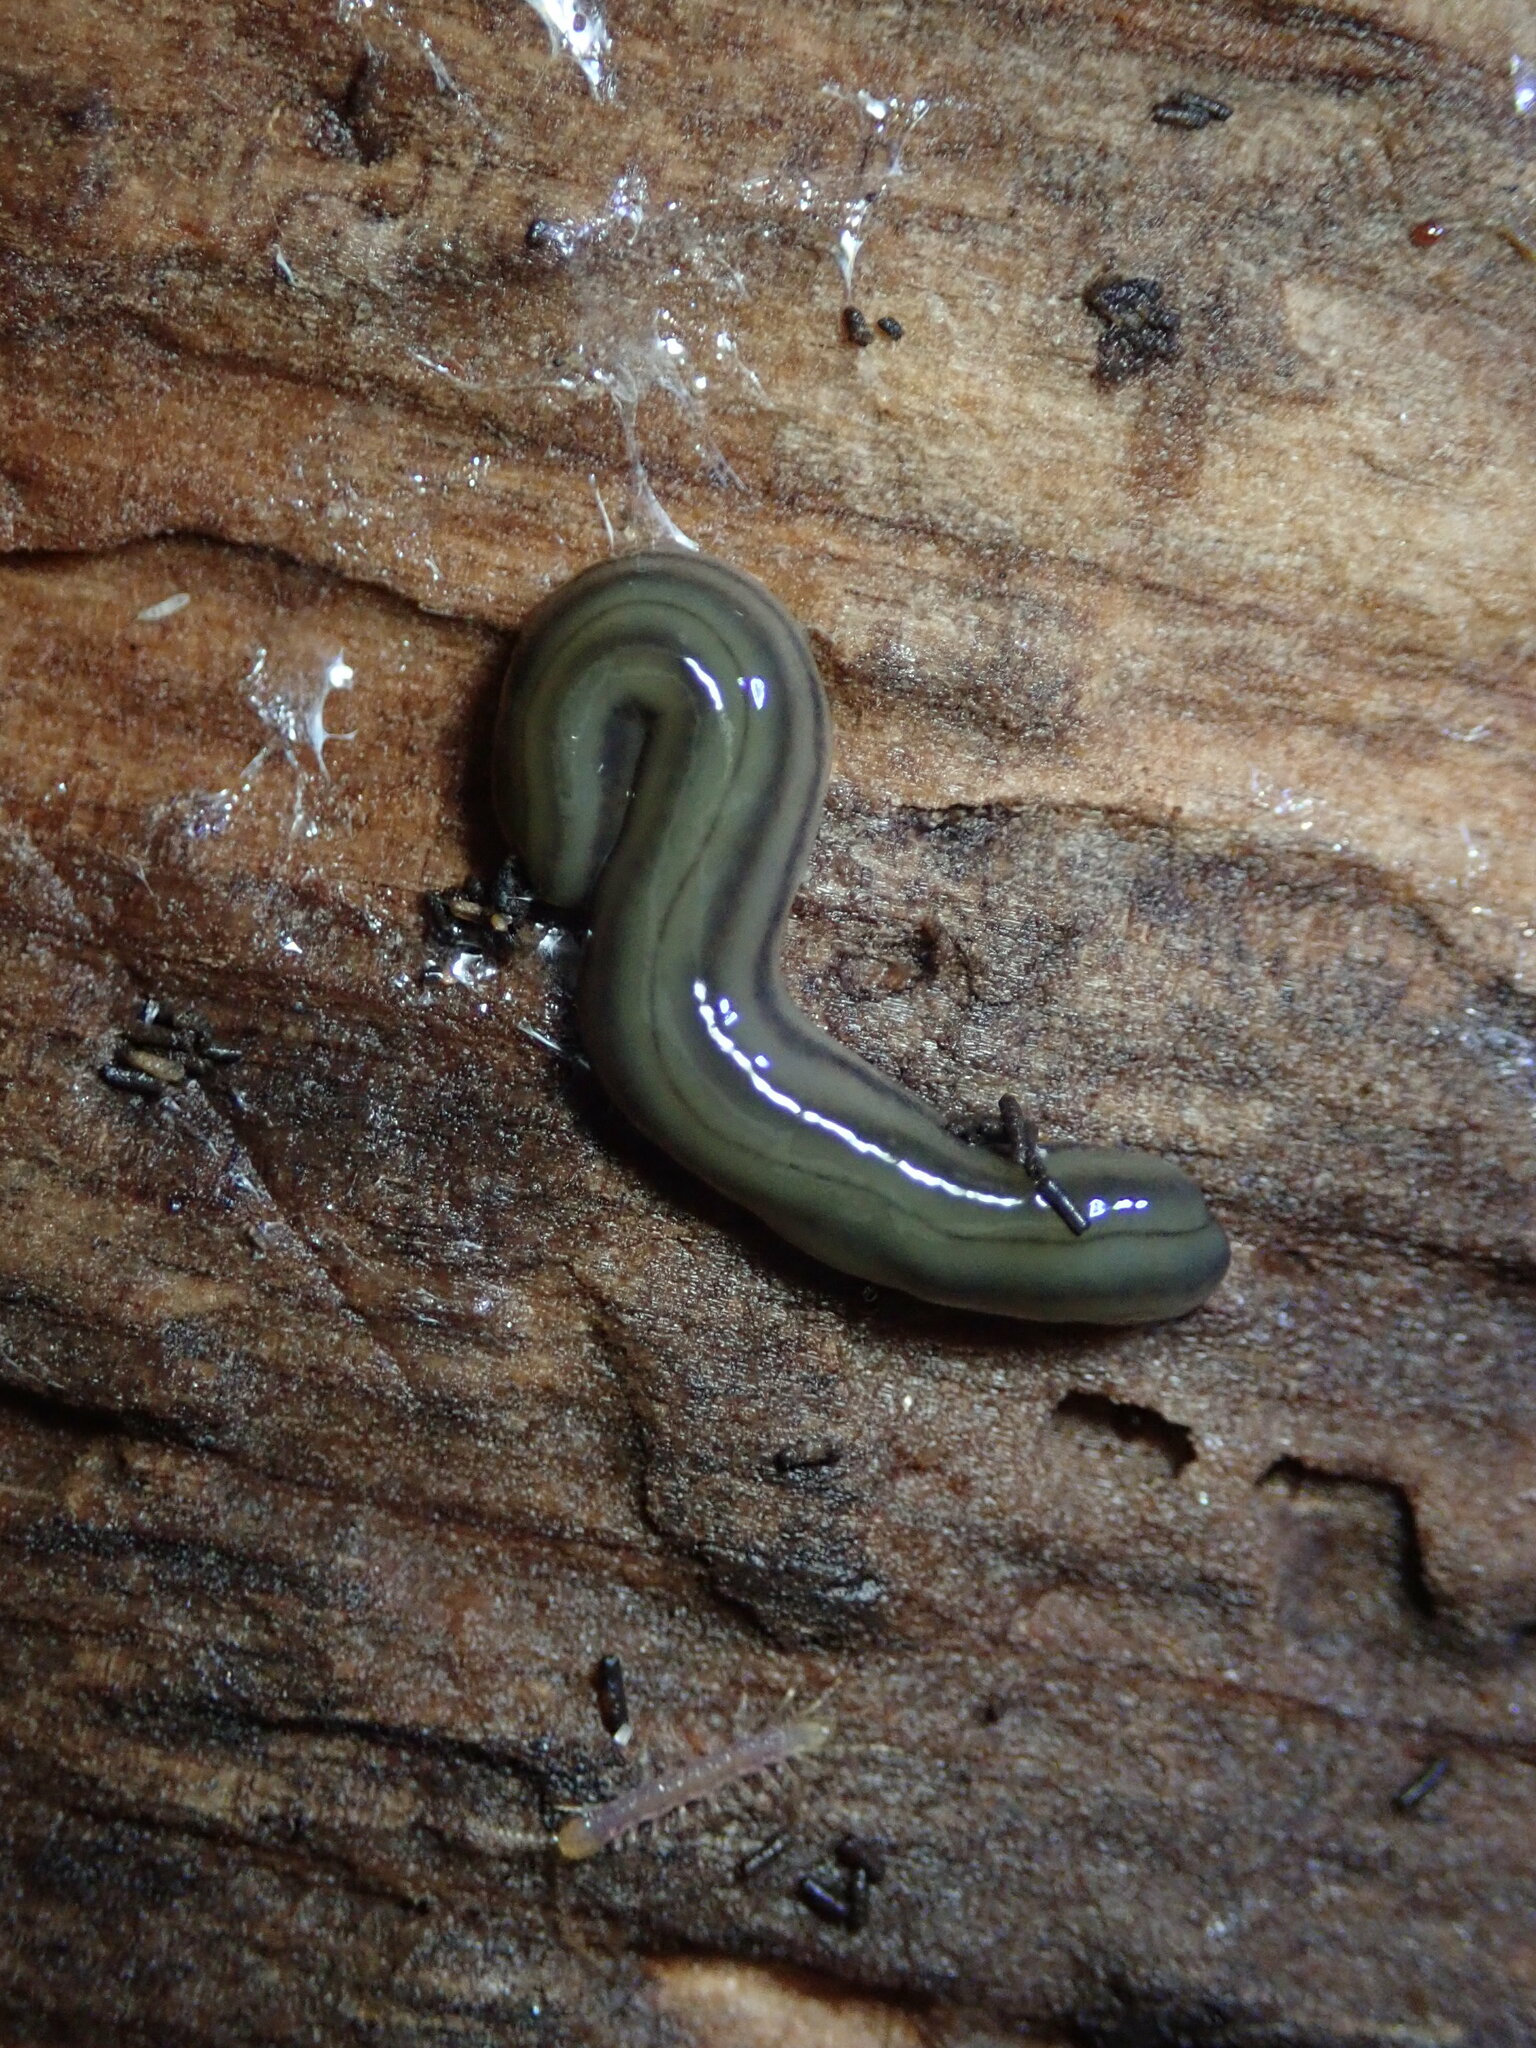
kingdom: Animalia
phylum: Platyhelminthes
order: Tricladida
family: Geoplanidae
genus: Bipalium
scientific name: Bipalium kewense
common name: Hammerhead flatworm
